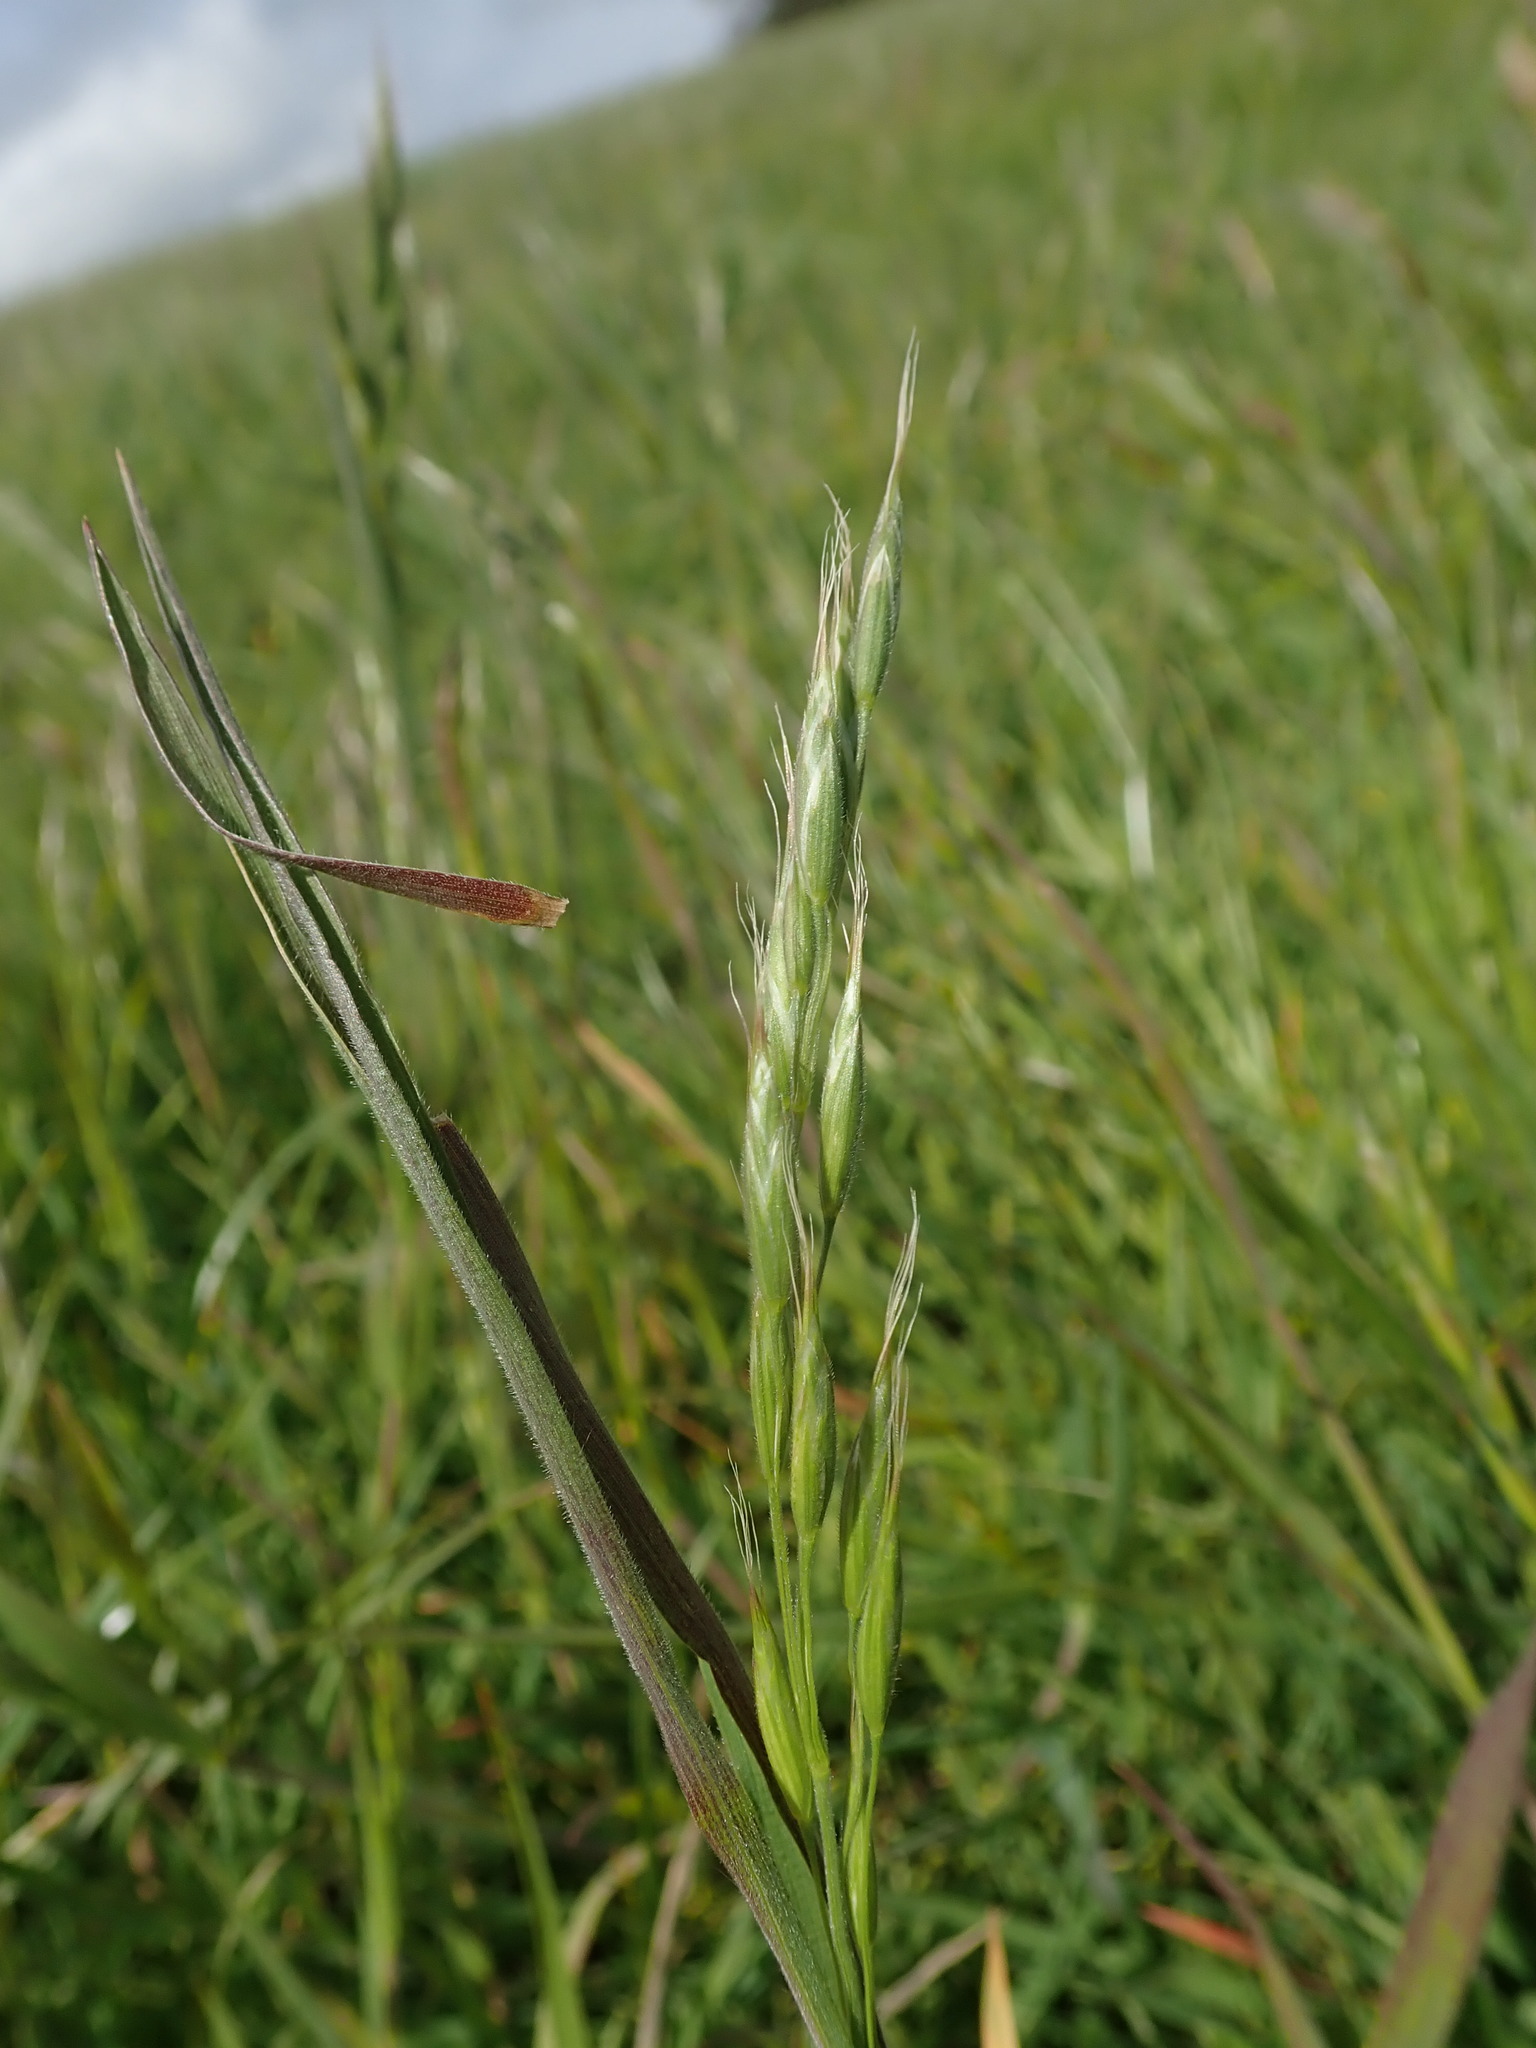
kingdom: Plantae
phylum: Tracheophyta
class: Liliopsida
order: Poales
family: Poaceae
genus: Bromus
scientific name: Bromus hordeaceus
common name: Soft brome
